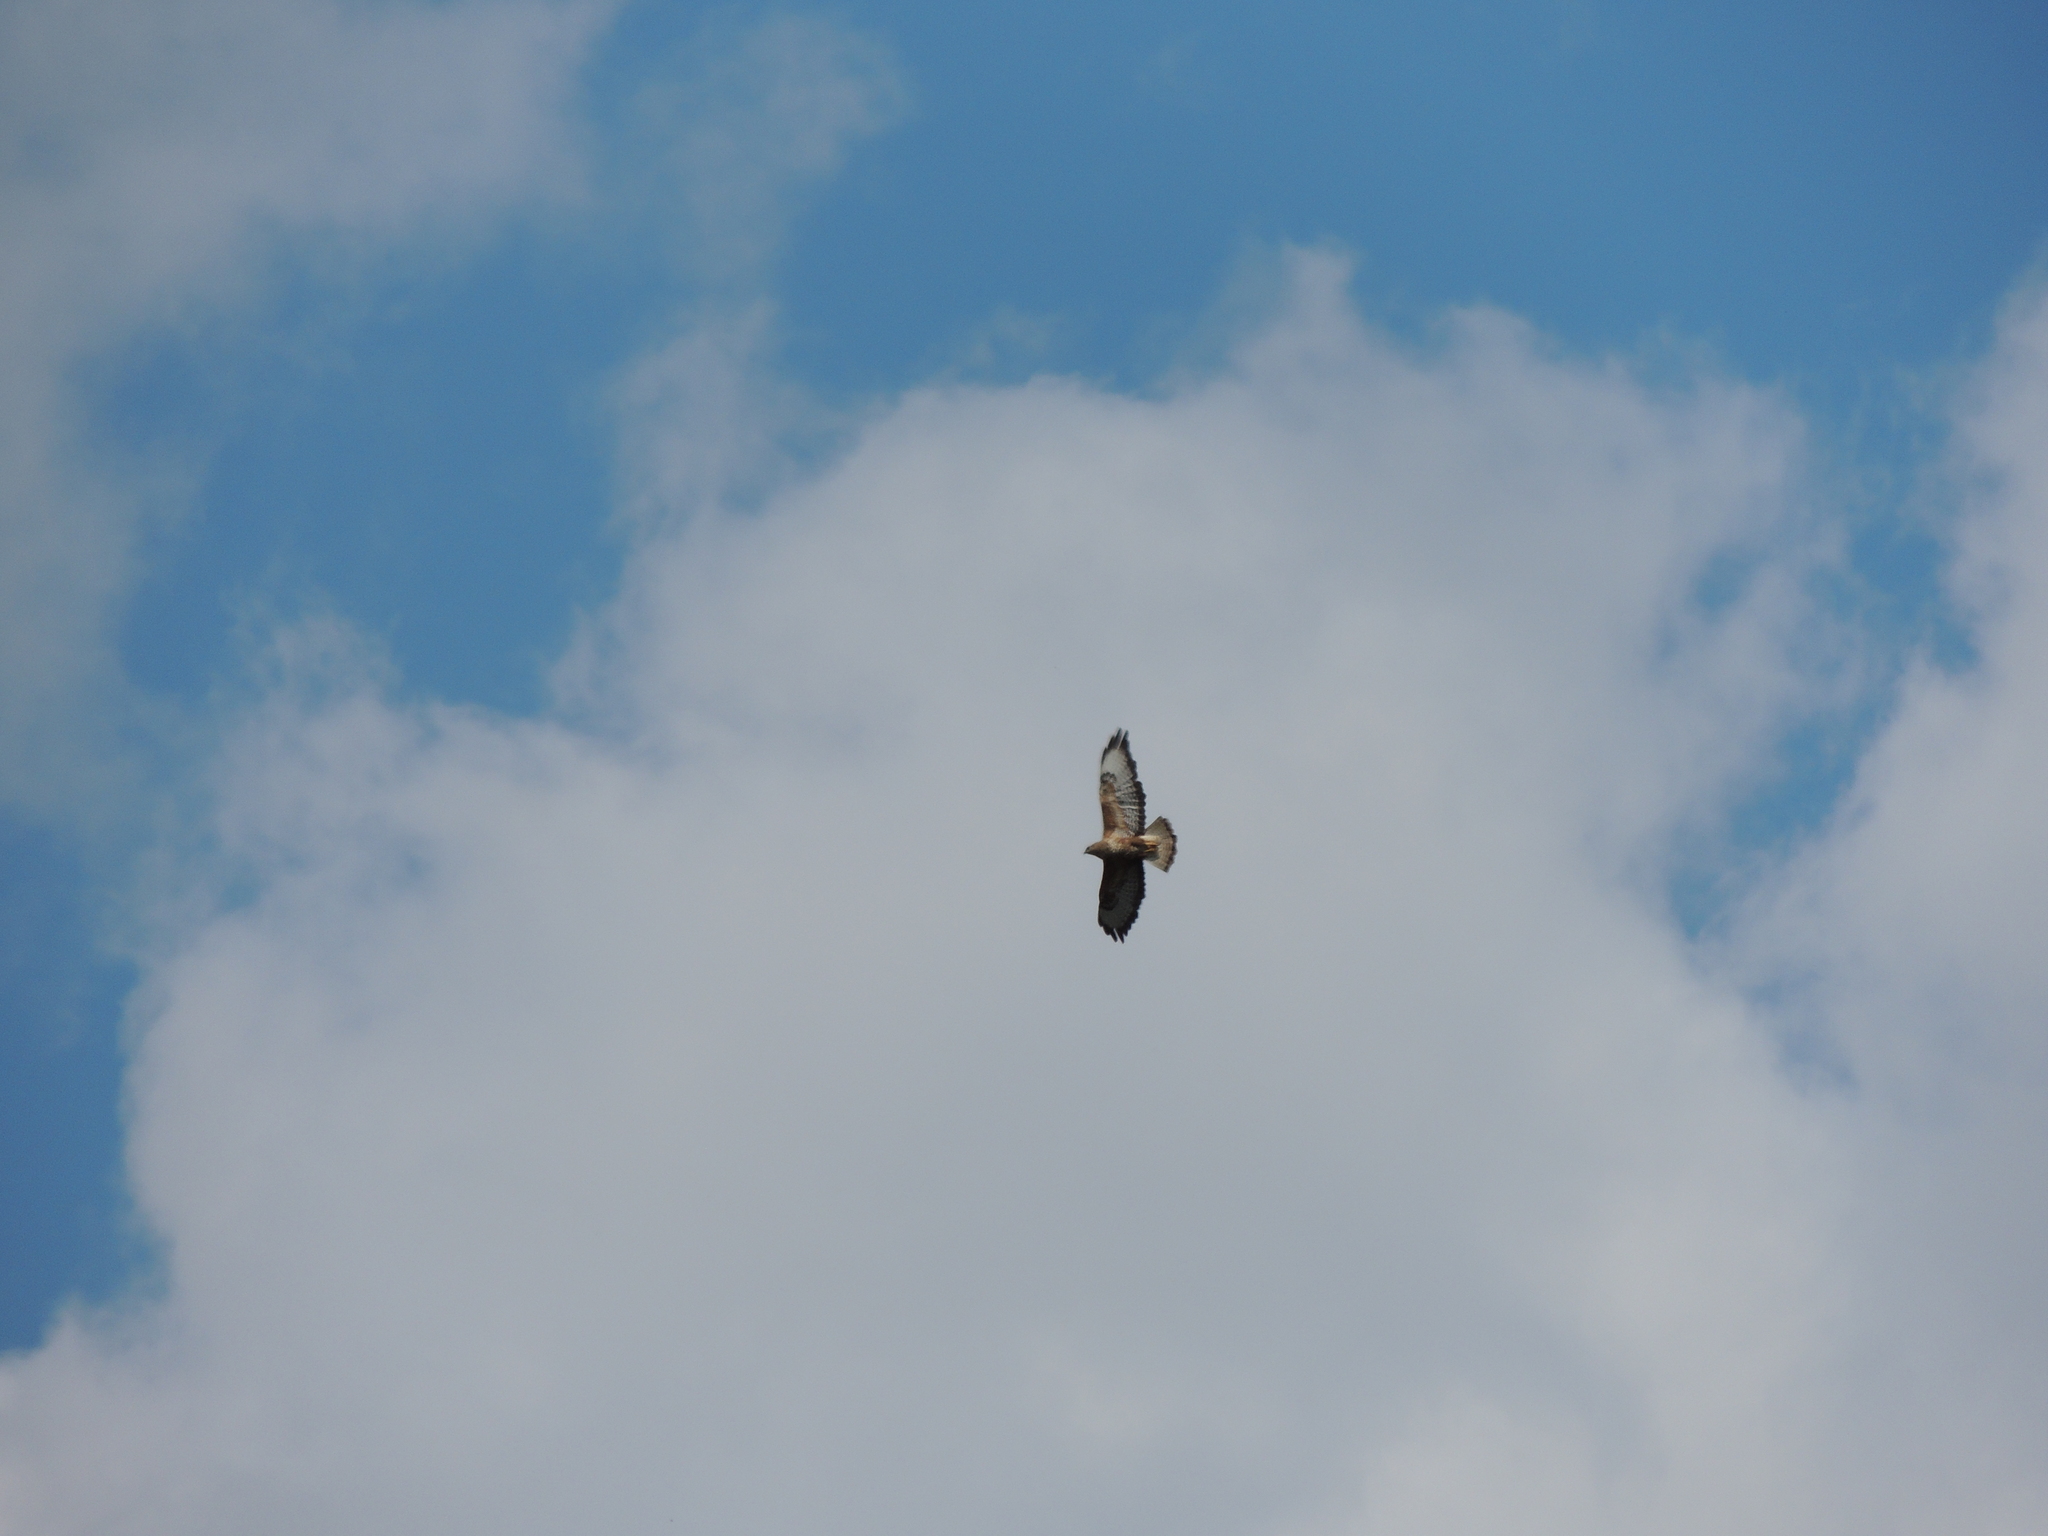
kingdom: Animalia
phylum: Chordata
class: Aves
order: Accipitriformes
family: Accipitridae
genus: Buteo
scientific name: Buteo buteo
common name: Common buzzard
